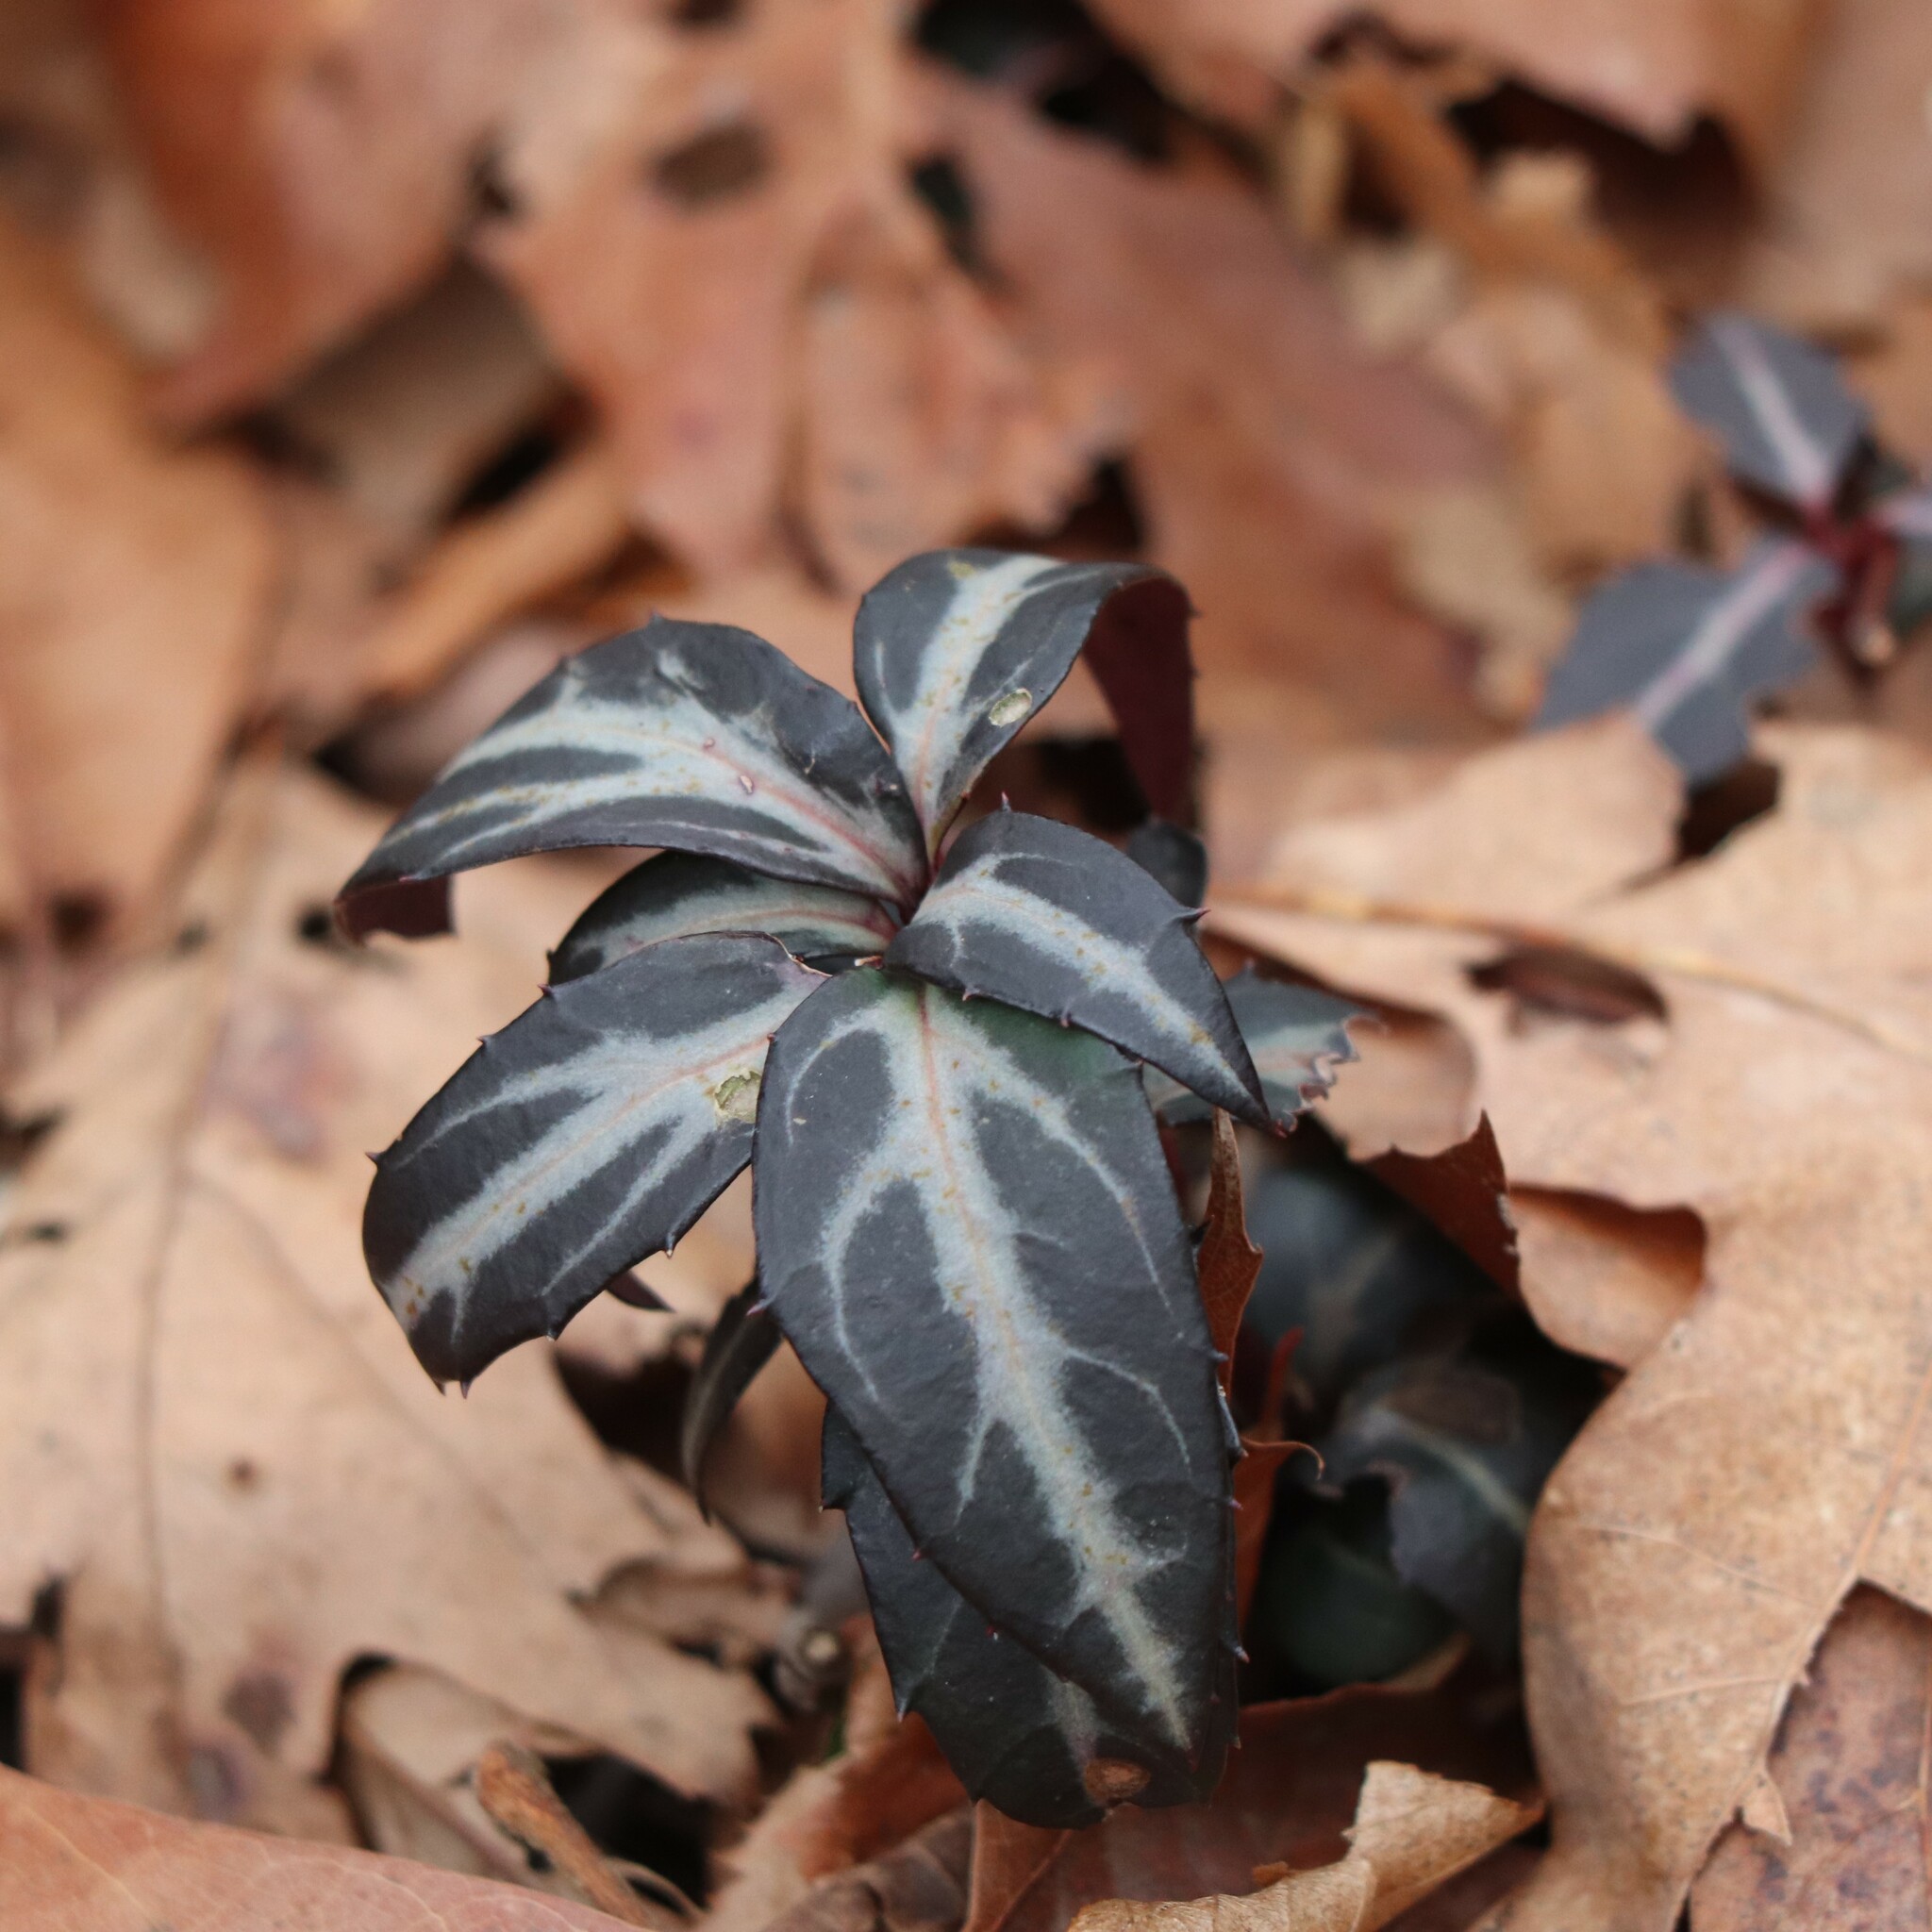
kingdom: Plantae
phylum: Tracheophyta
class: Magnoliopsida
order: Ericales
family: Ericaceae
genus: Chimaphila
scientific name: Chimaphila maculata
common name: Spotted pipsissewa
